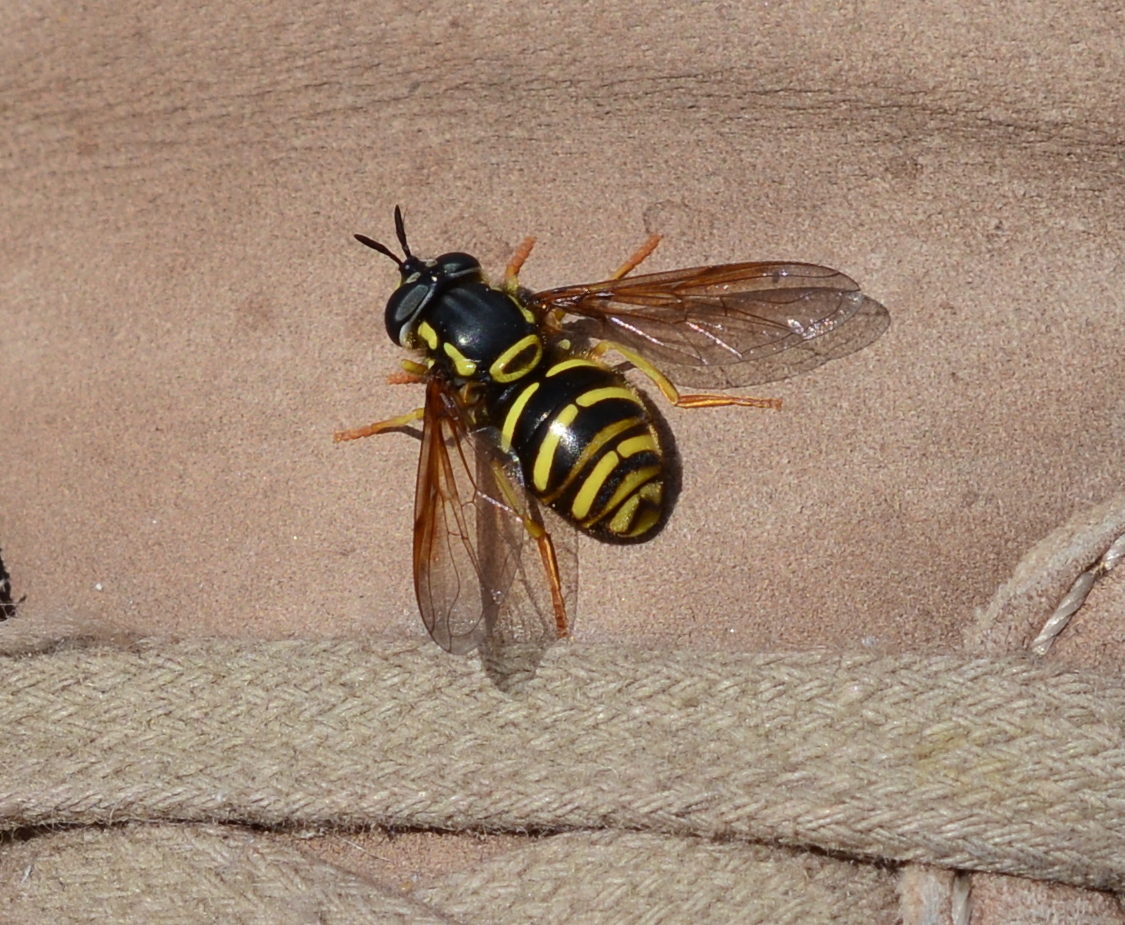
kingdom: Animalia
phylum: Arthropoda
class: Insecta
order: Diptera
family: Syrphidae
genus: Chrysotoxum
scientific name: Chrysotoxum
